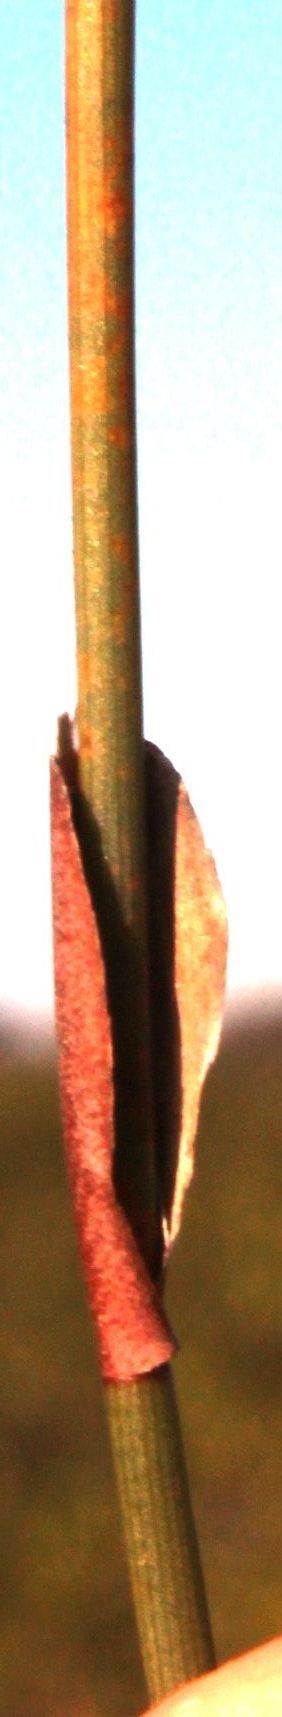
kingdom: Plantae
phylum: Tracheophyta
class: Liliopsida
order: Poales
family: Restionaceae
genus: Willdenowia
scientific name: Willdenowia sulcata
